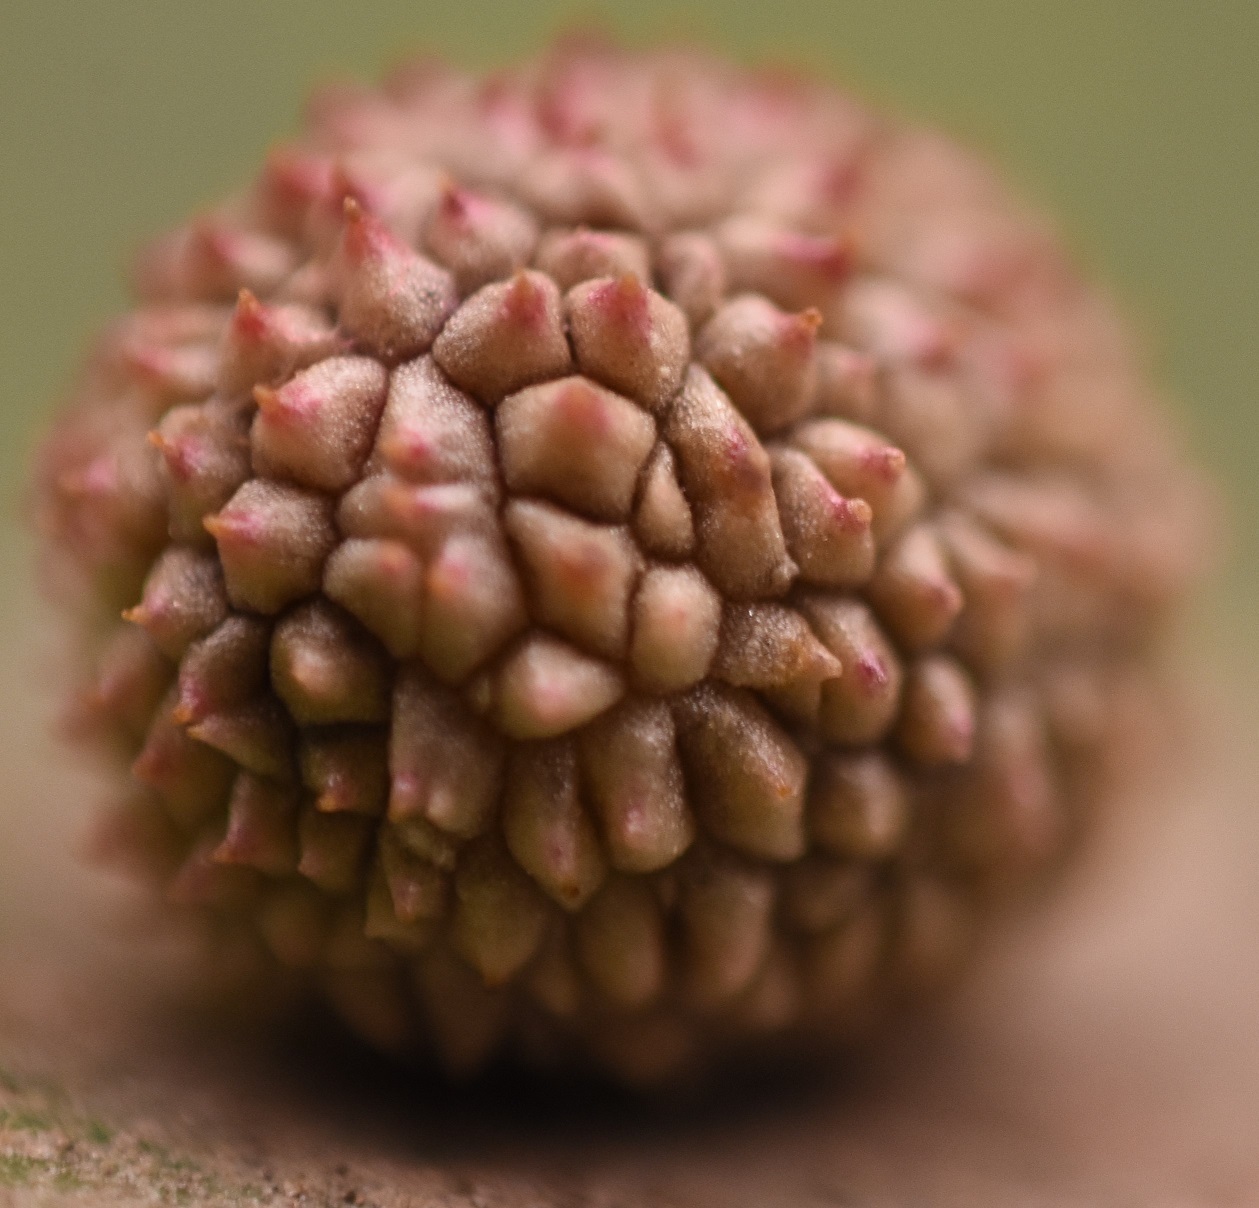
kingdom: Animalia
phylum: Arthropoda
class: Insecta
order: Hymenoptera
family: Cynipidae
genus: Acraspis
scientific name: Acraspis quercushirta
